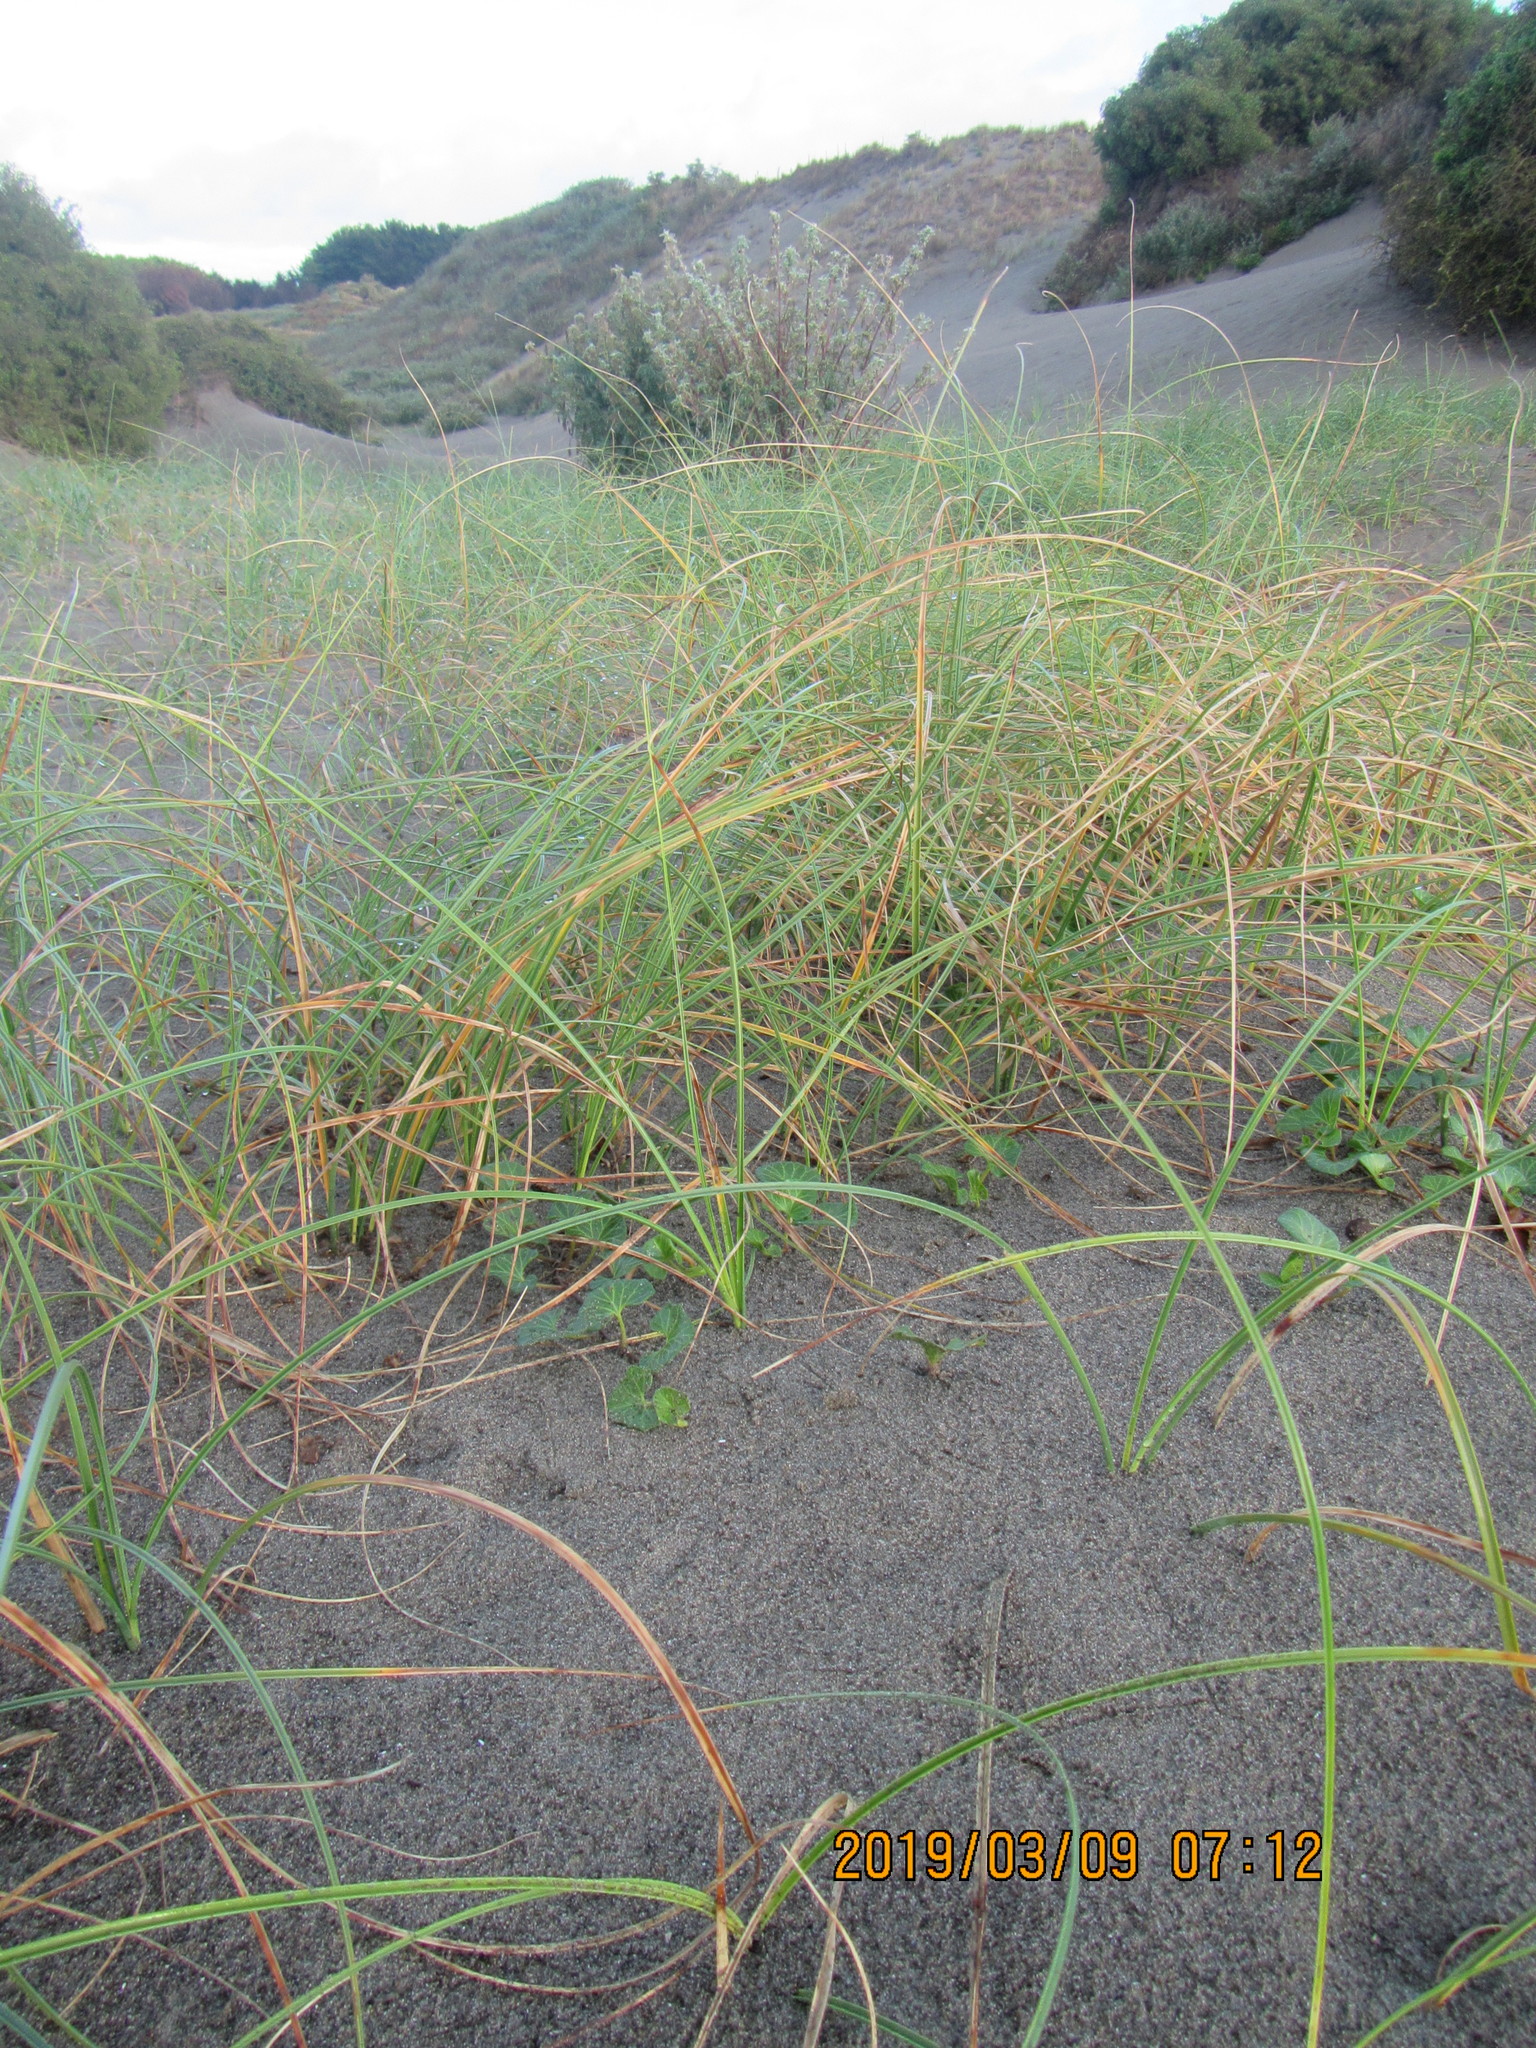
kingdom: Plantae
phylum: Tracheophyta
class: Magnoliopsida
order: Solanales
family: Convolvulaceae
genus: Calystegia
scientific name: Calystegia soldanella
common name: Sea bindweed
